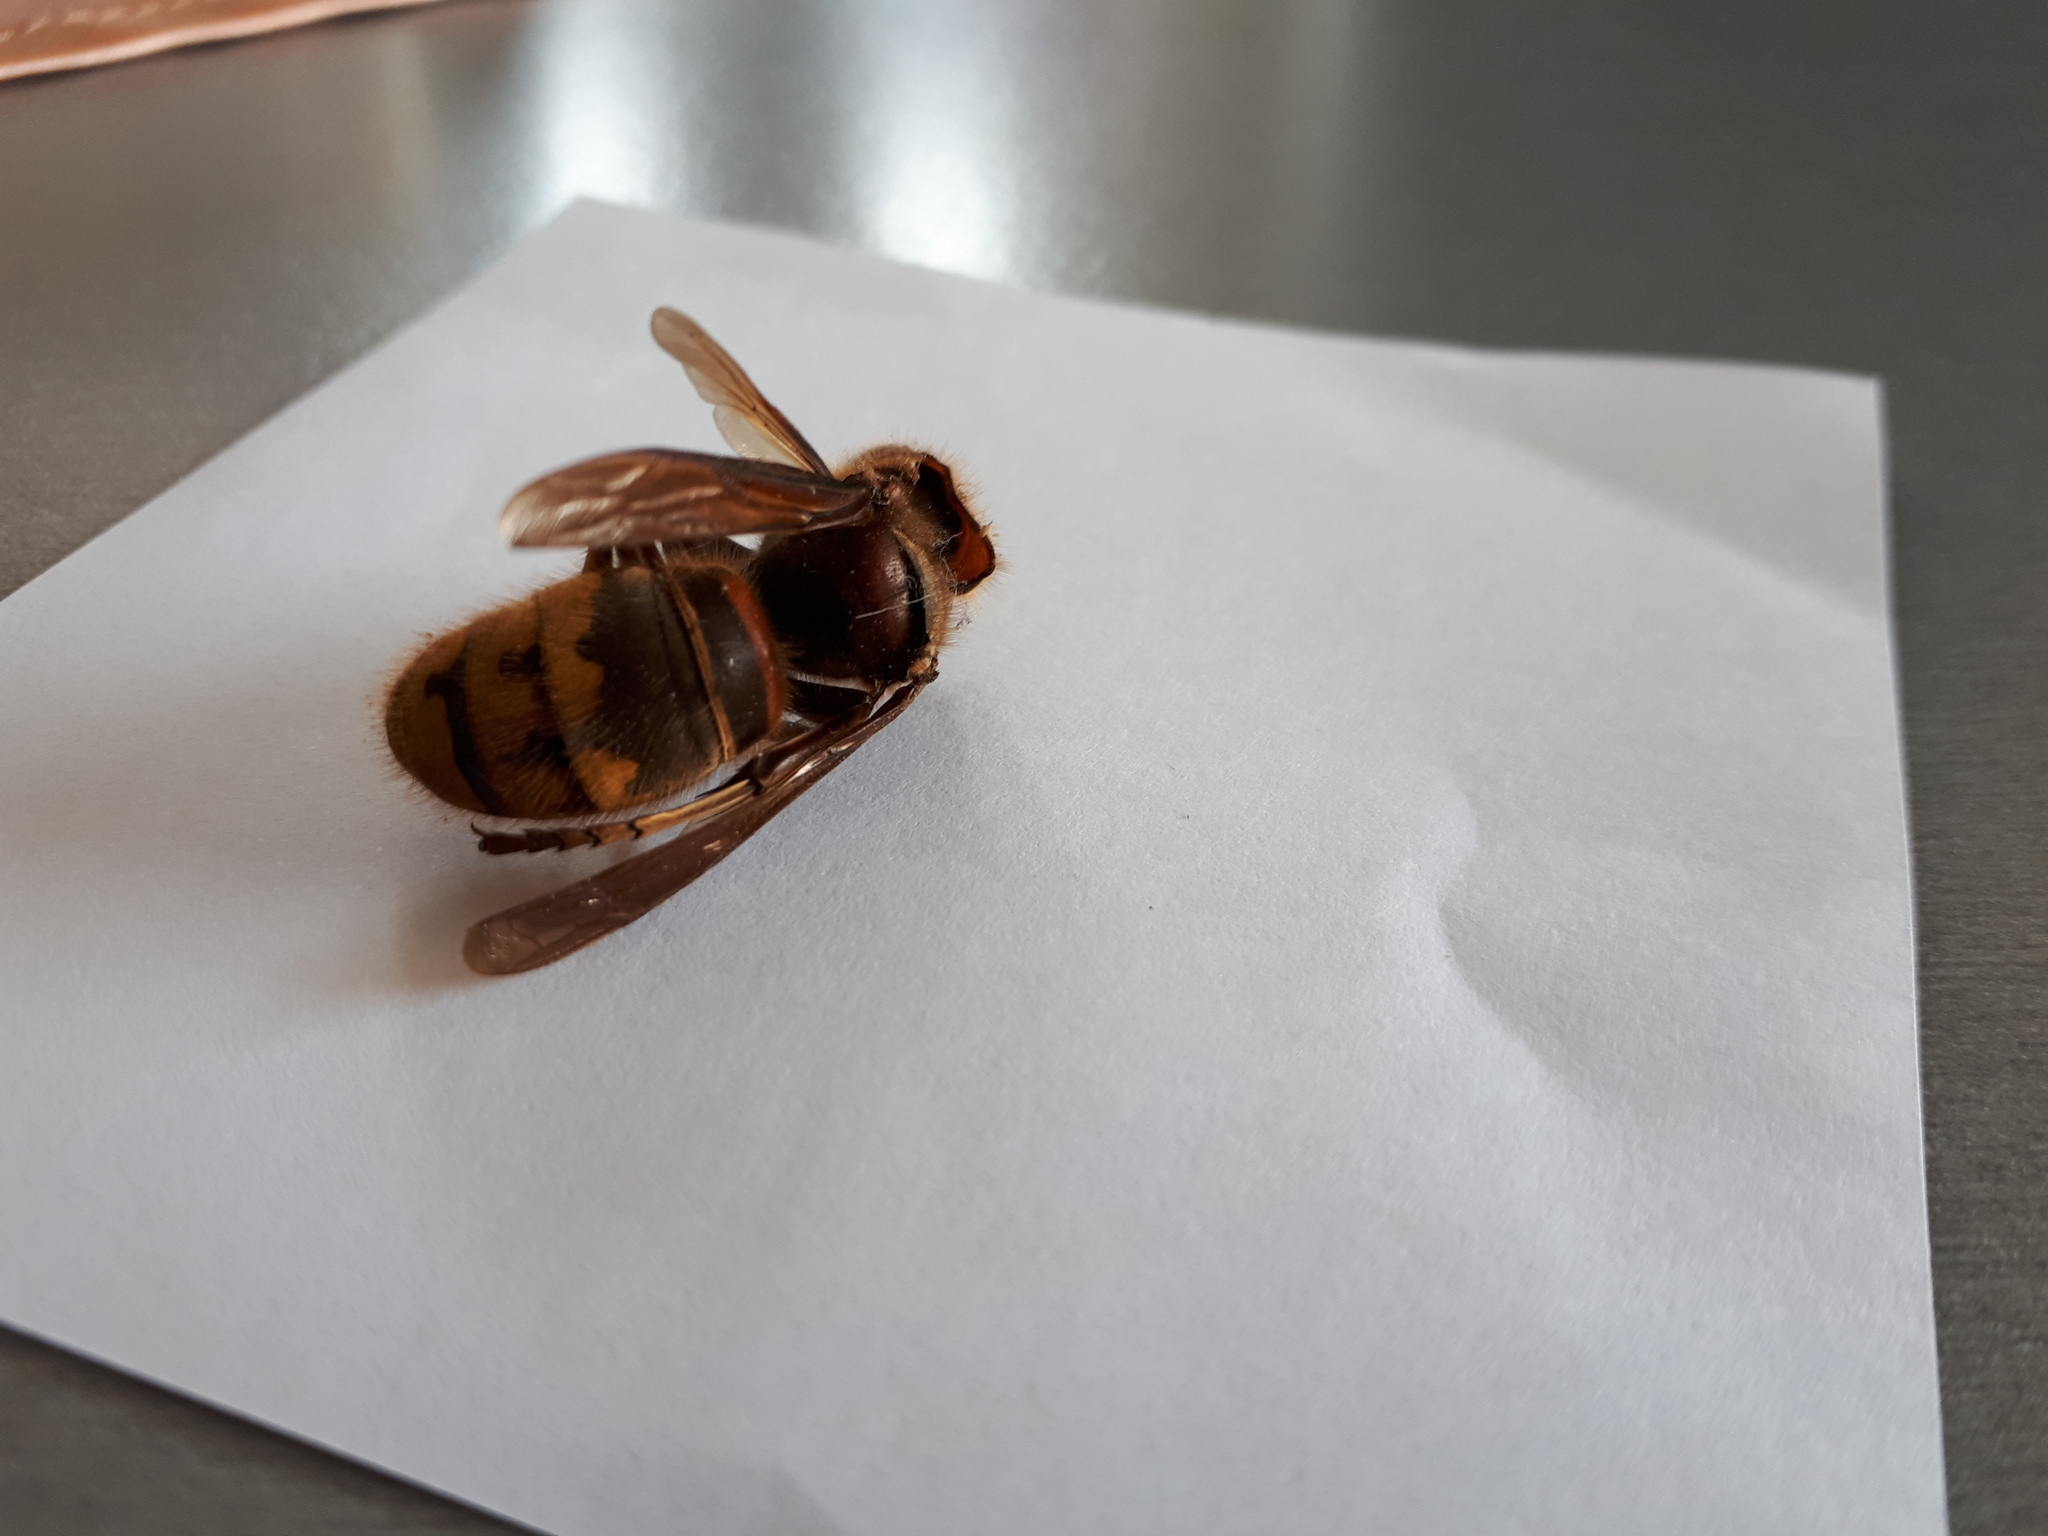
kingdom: Animalia
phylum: Arthropoda
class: Insecta
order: Hymenoptera
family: Vespidae
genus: Vespa
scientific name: Vespa crabro
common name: Hornet
